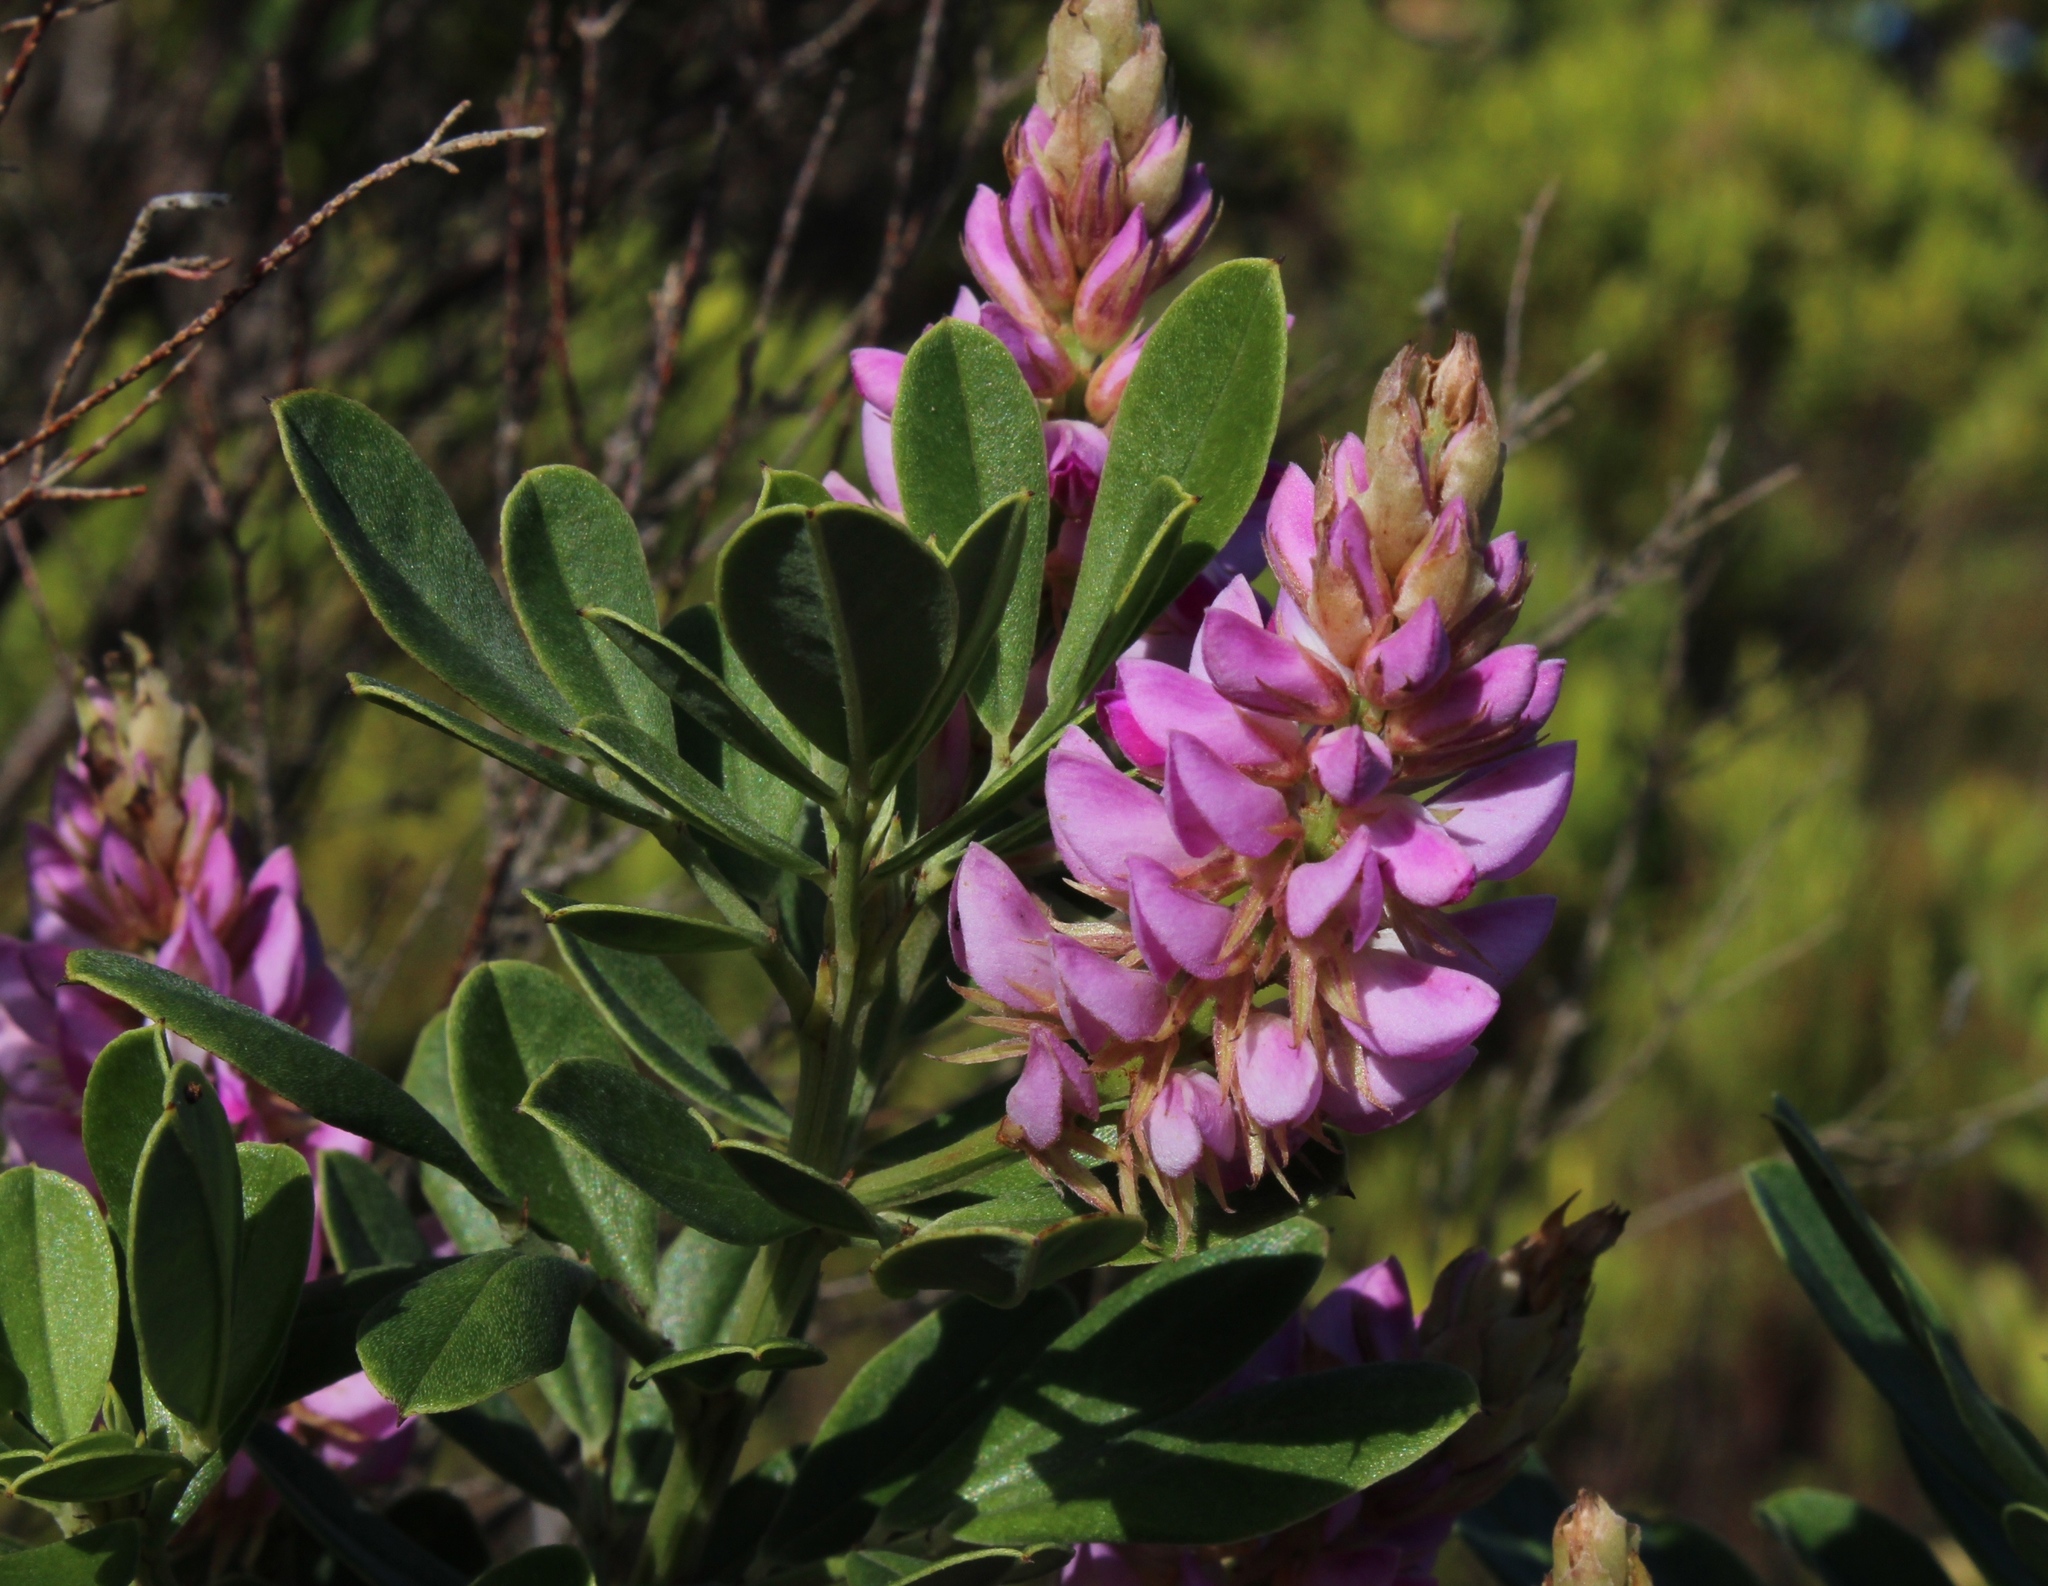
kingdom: Plantae
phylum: Tracheophyta
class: Magnoliopsida
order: Fabales
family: Fabaceae
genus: Indigofera
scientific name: Indigofera cytisoides
